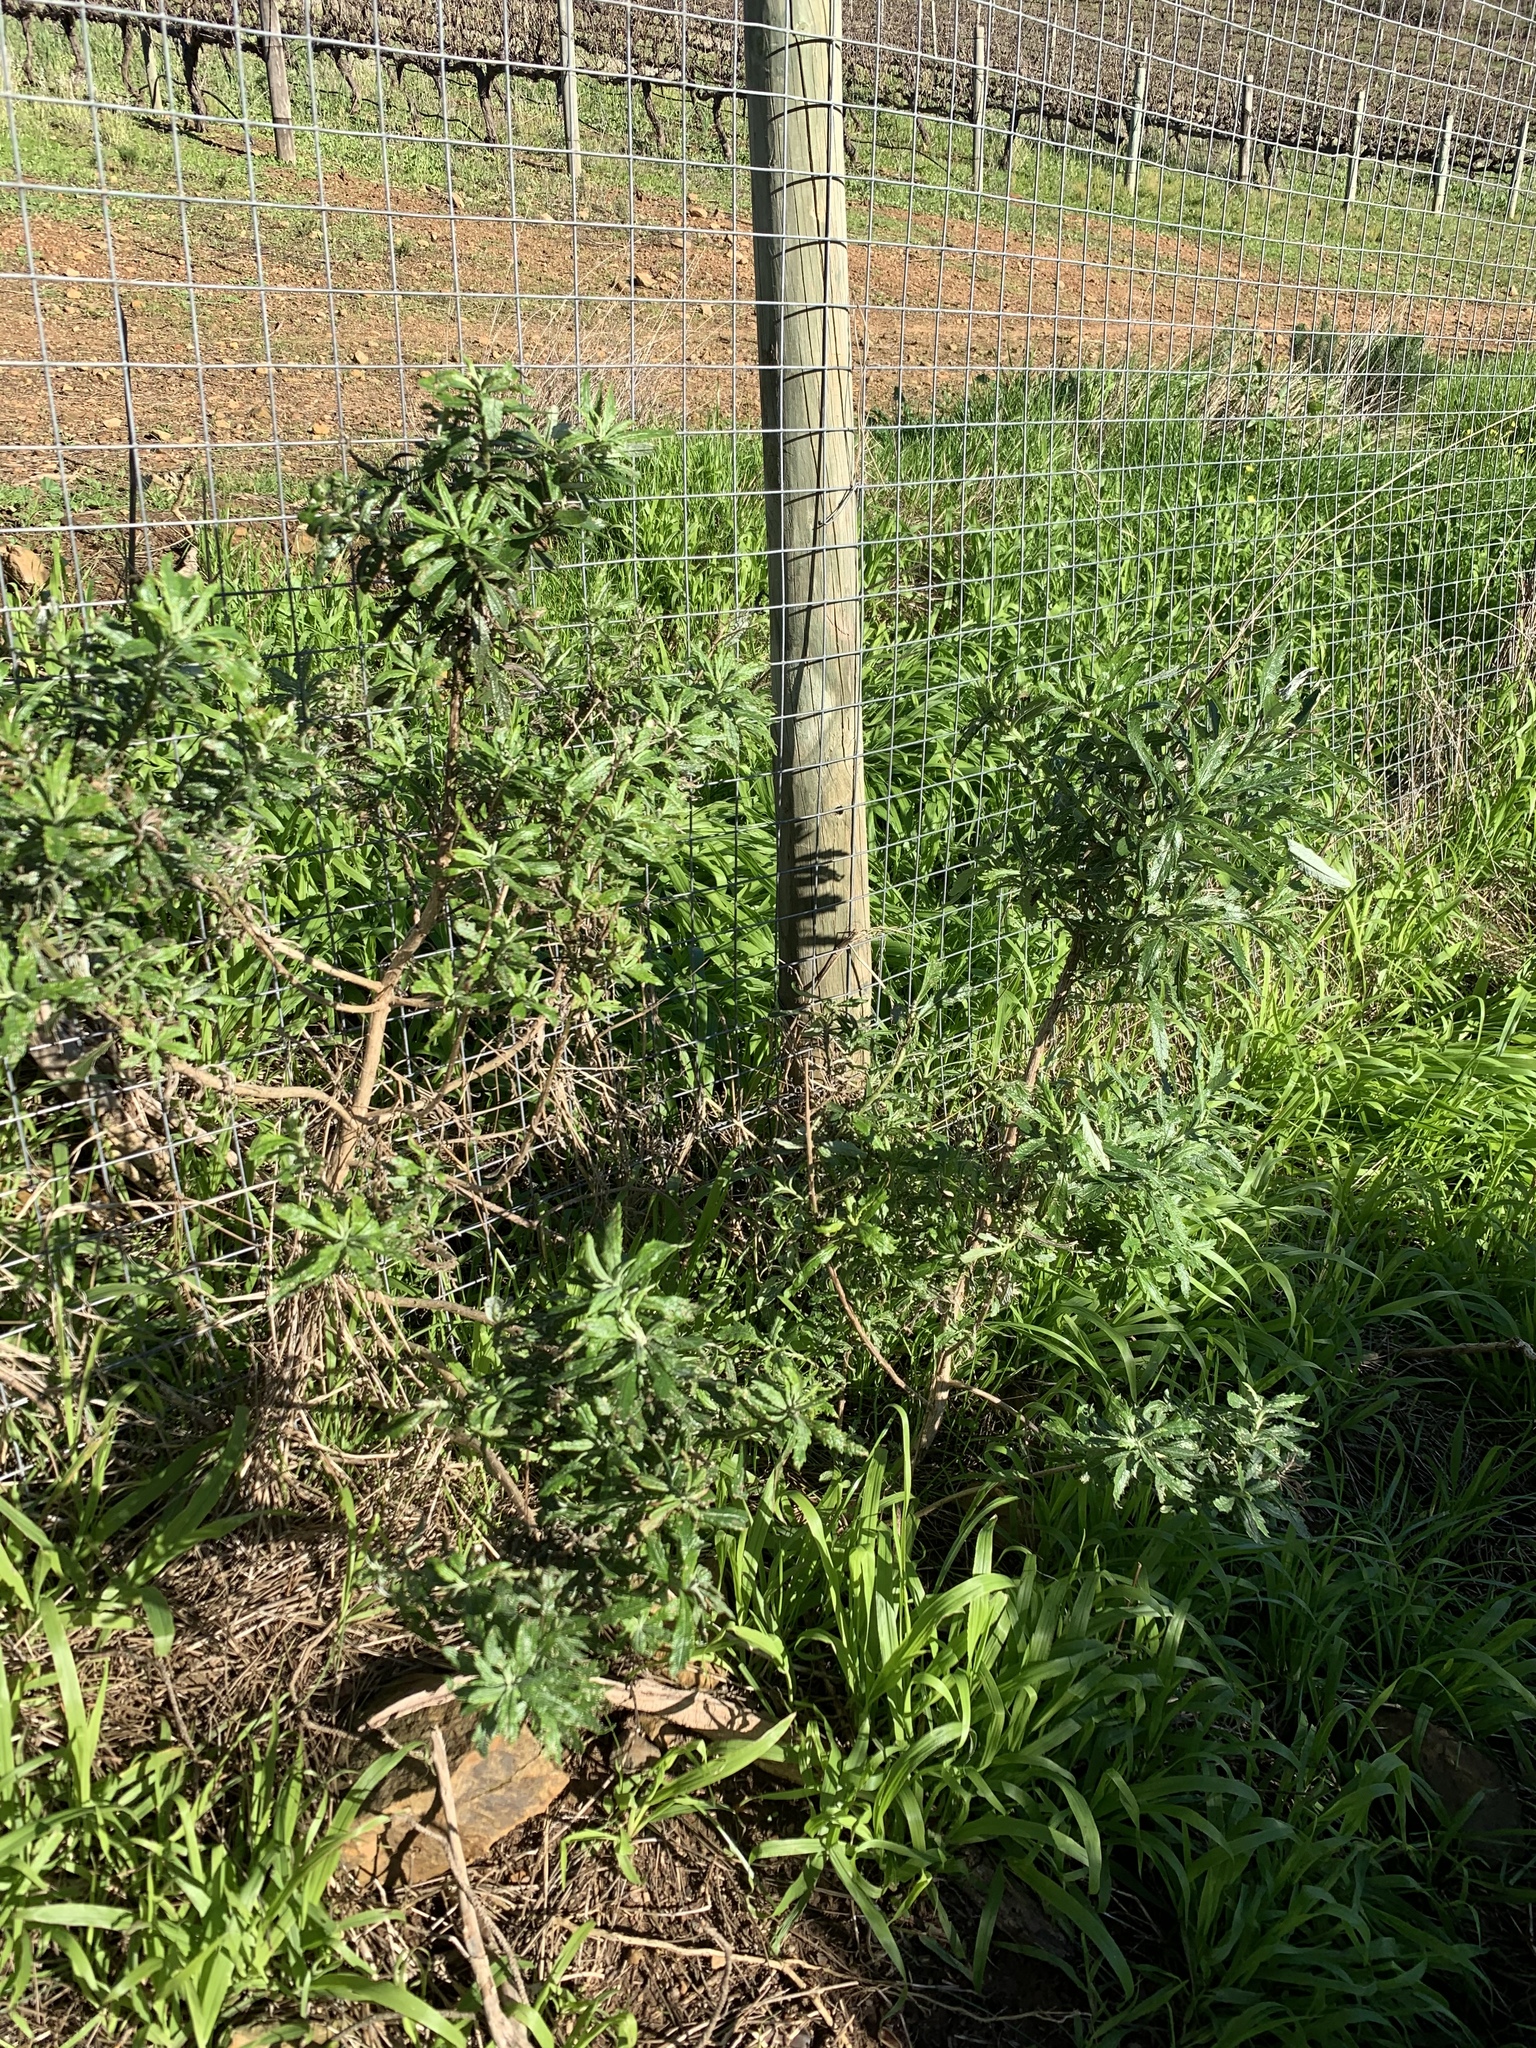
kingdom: Plantae
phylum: Tracheophyta
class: Magnoliopsida
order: Asterales
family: Asteraceae
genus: Senecio
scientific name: Senecio pterophorus
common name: Shoddy ragwort
